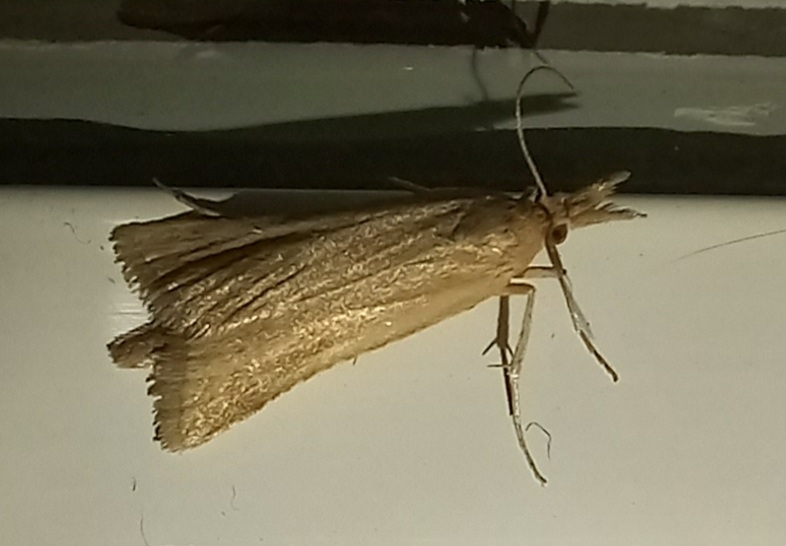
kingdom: Animalia
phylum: Arthropoda
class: Insecta
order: Lepidoptera
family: Pyralidae
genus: Synaphe
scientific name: Synaphe punctalis
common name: Long-legged tabby
